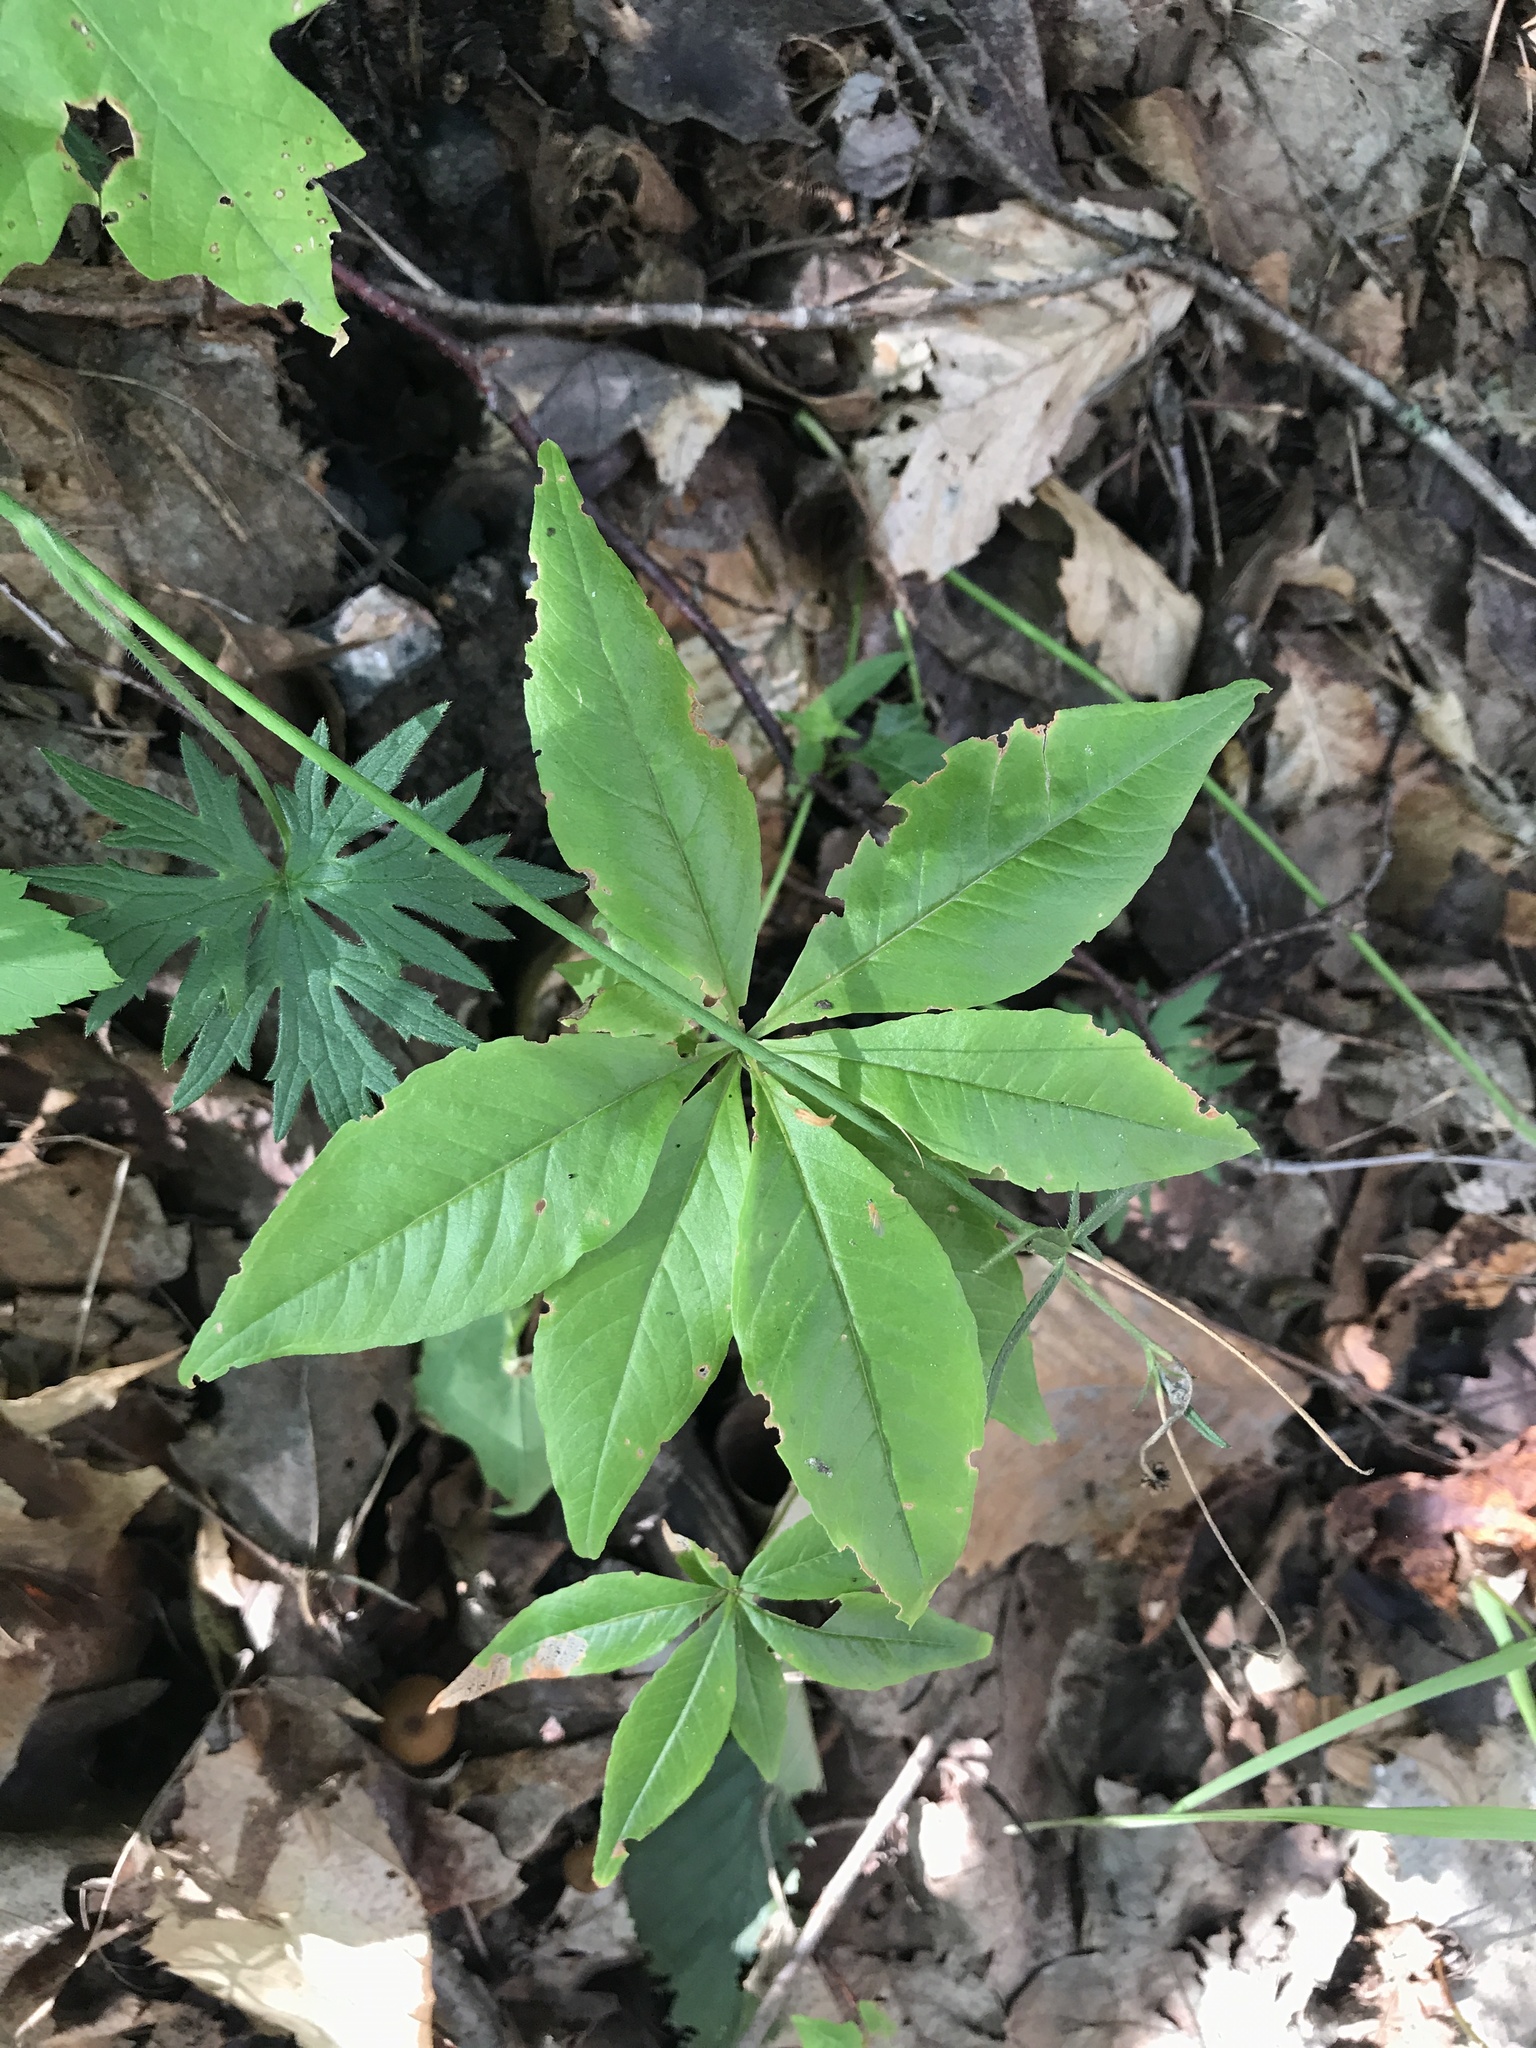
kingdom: Plantae
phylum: Tracheophyta
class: Magnoliopsida
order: Ericales
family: Primulaceae
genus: Lysimachia
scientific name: Lysimachia borealis
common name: American starflower
